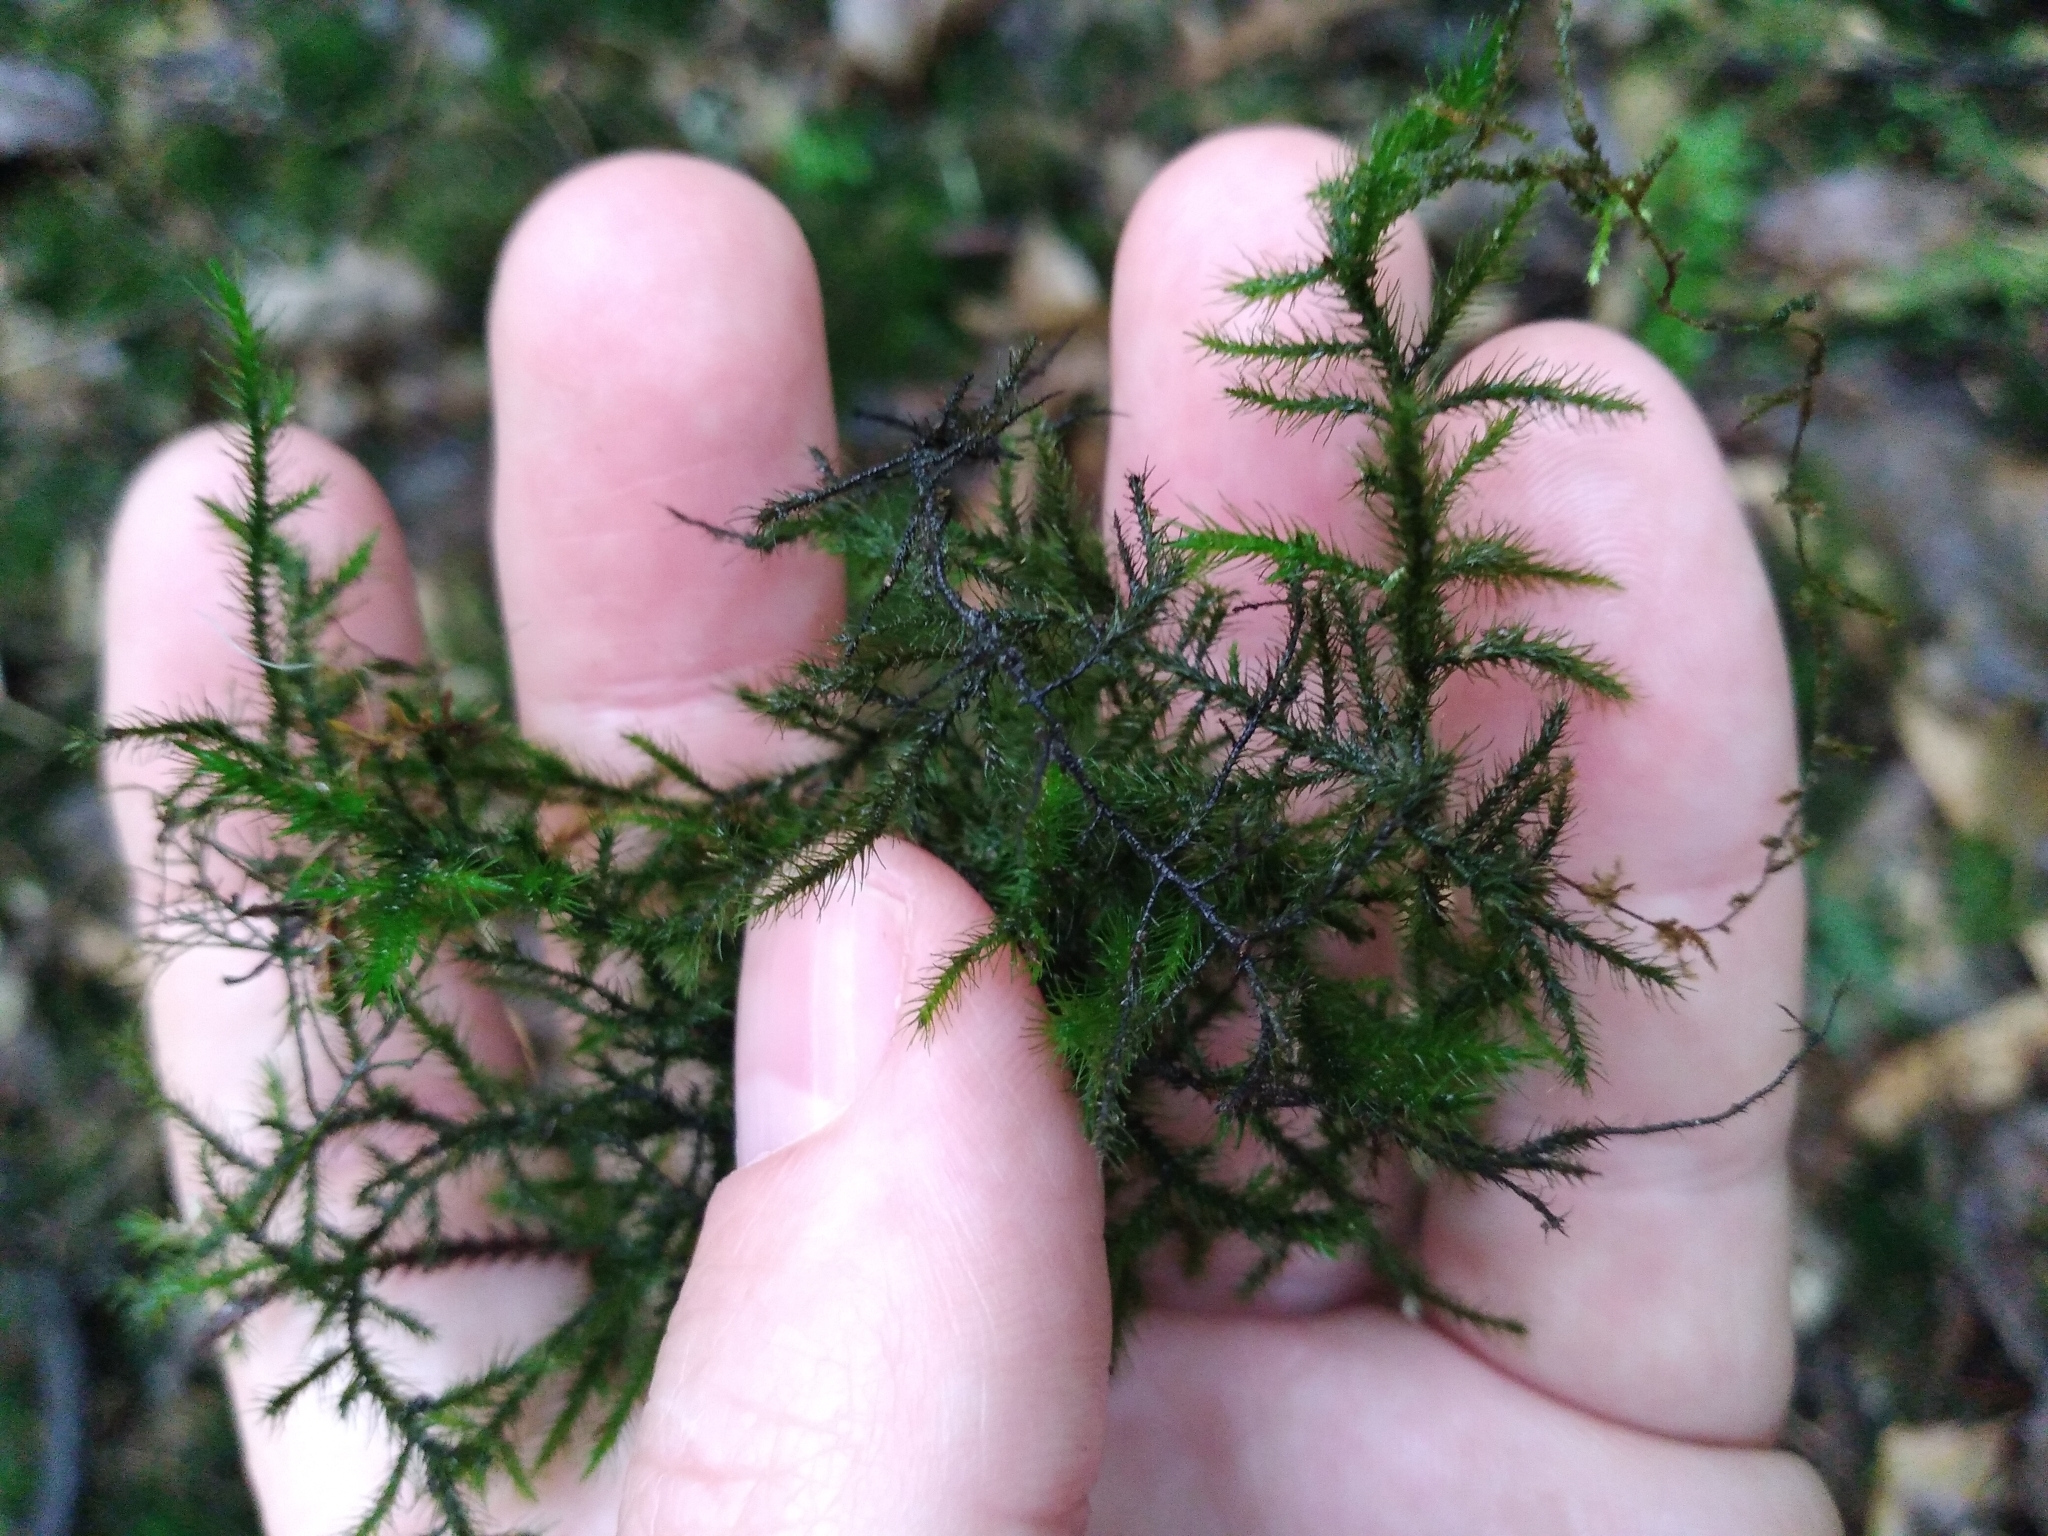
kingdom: Plantae
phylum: Bryophyta
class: Bryopsida
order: Hypnales
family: Neckeraceae
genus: Echinodiopsis
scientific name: Echinodiopsis hispida
